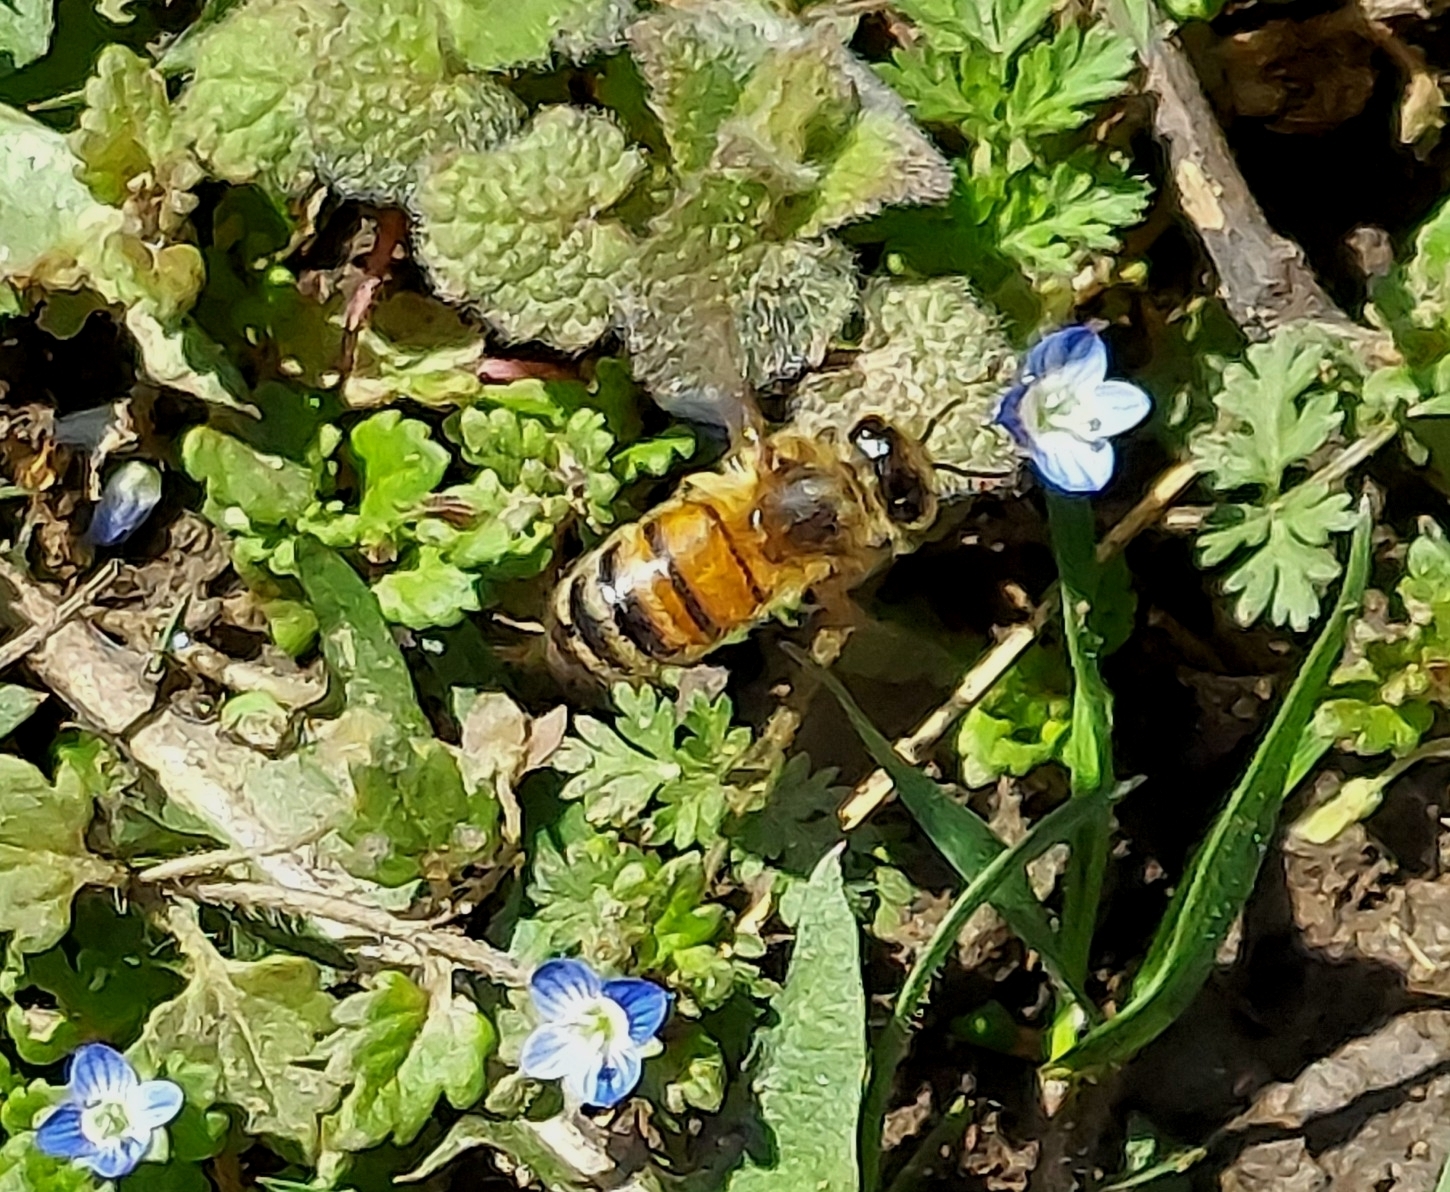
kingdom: Animalia
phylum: Arthropoda
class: Insecta
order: Hymenoptera
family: Apidae
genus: Apis
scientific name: Apis mellifera
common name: Honey bee
